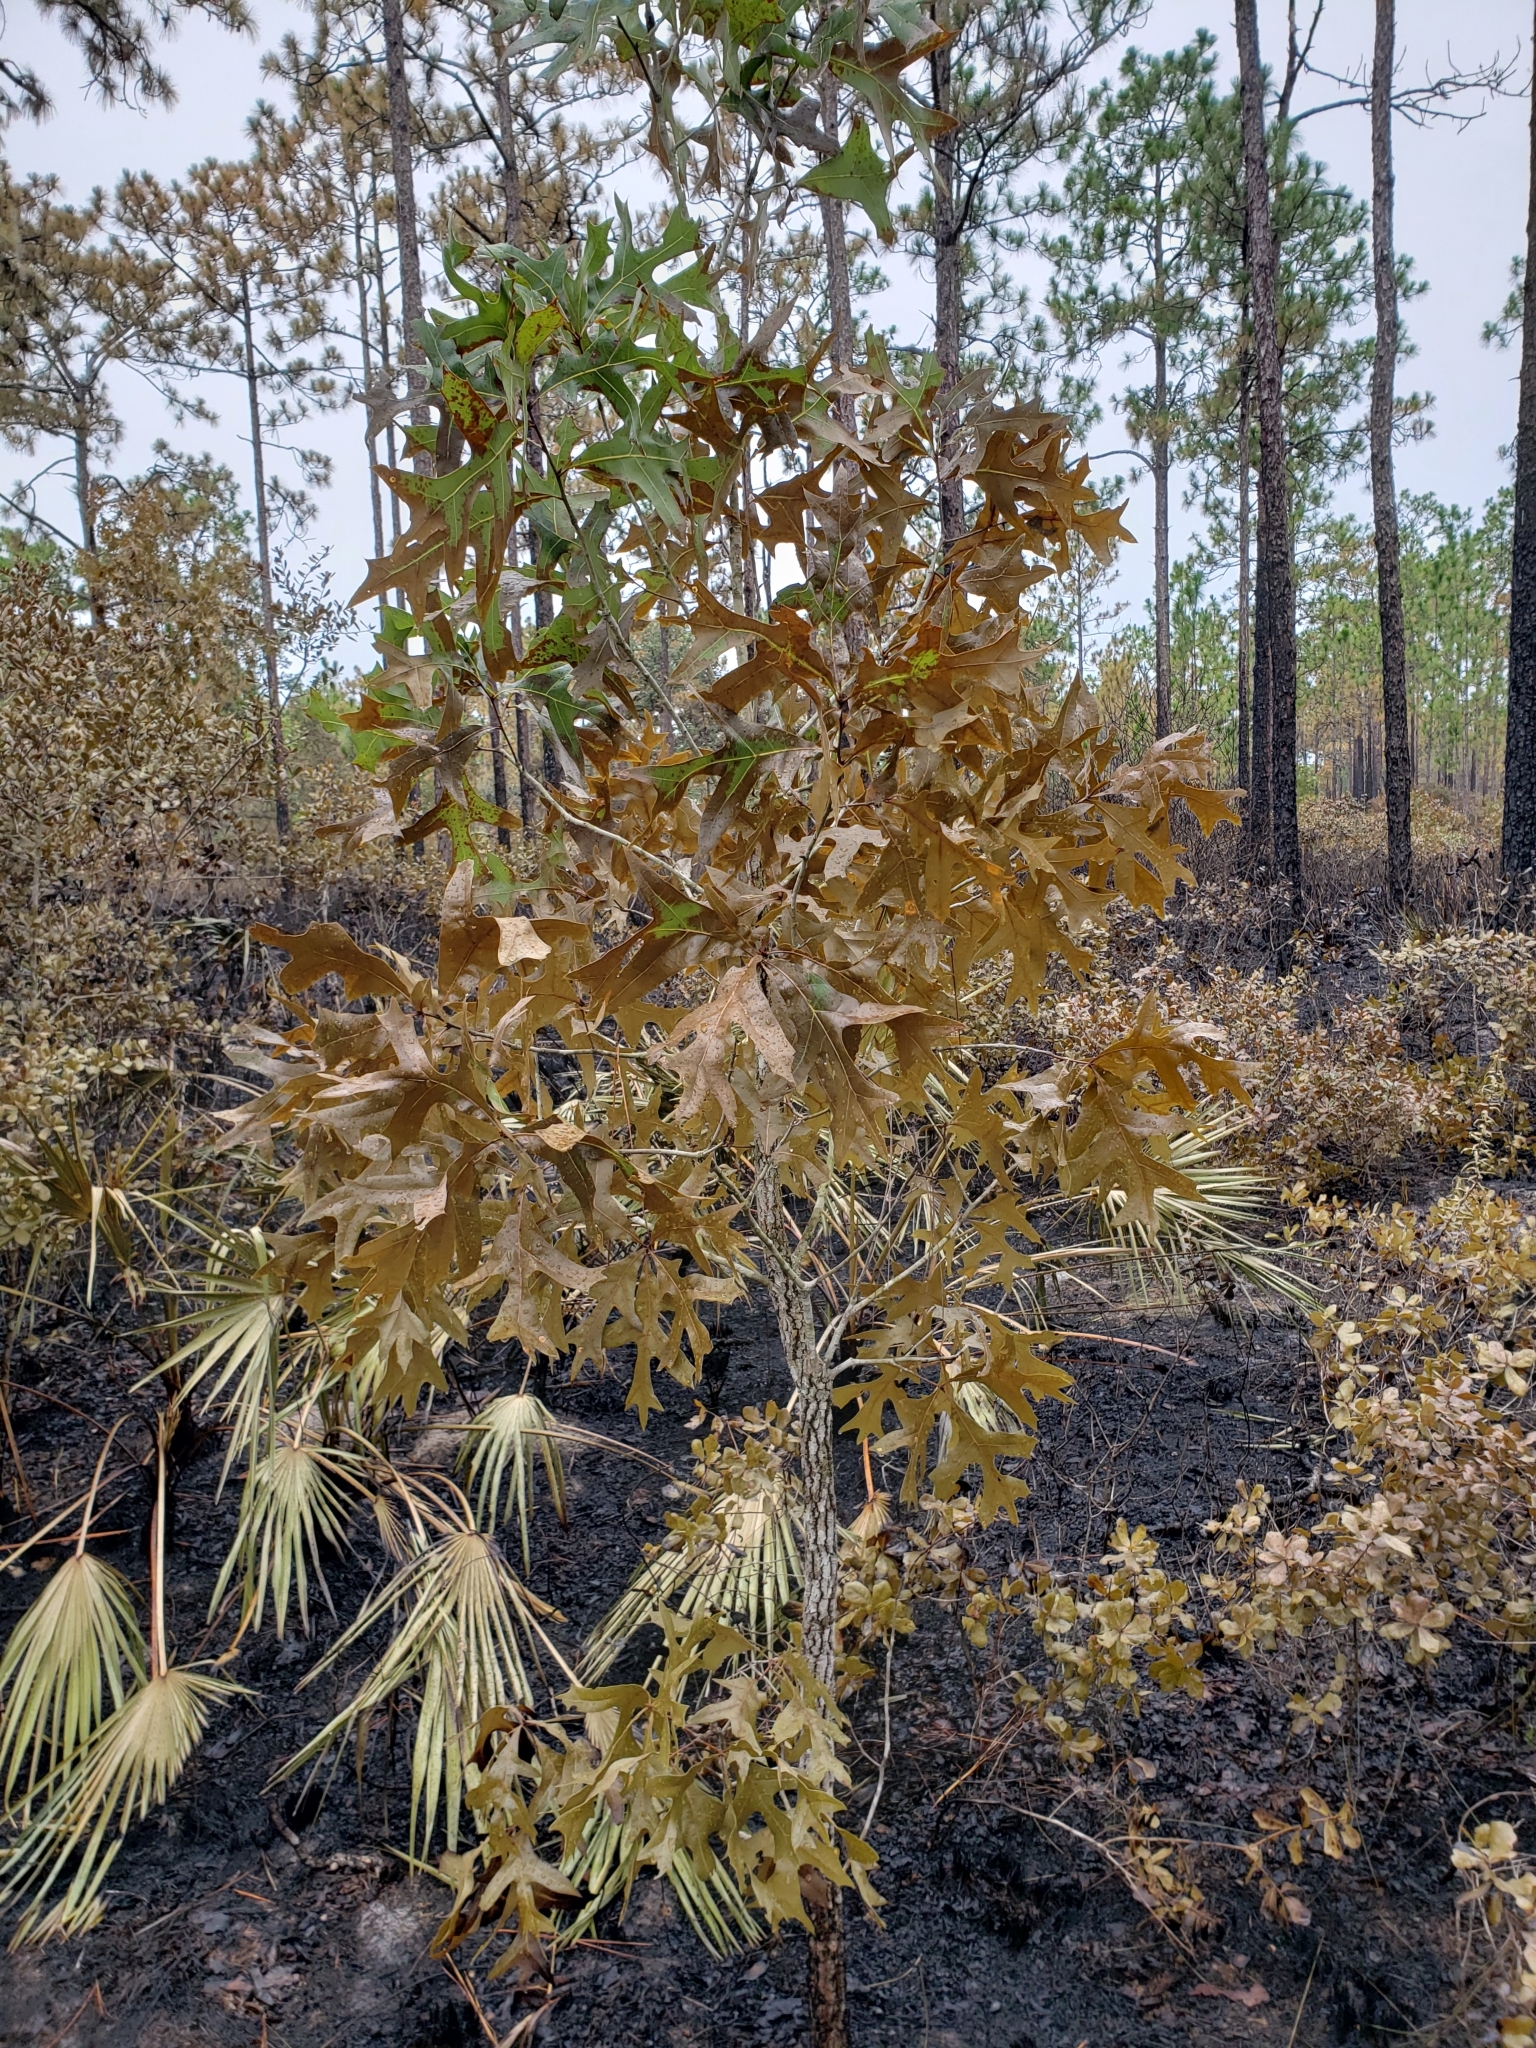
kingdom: Plantae
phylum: Tracheophyta
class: Magnoliopsida
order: Fagales
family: Fagaceae
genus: Quercus
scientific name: Quercus laevis
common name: Turkey oak
